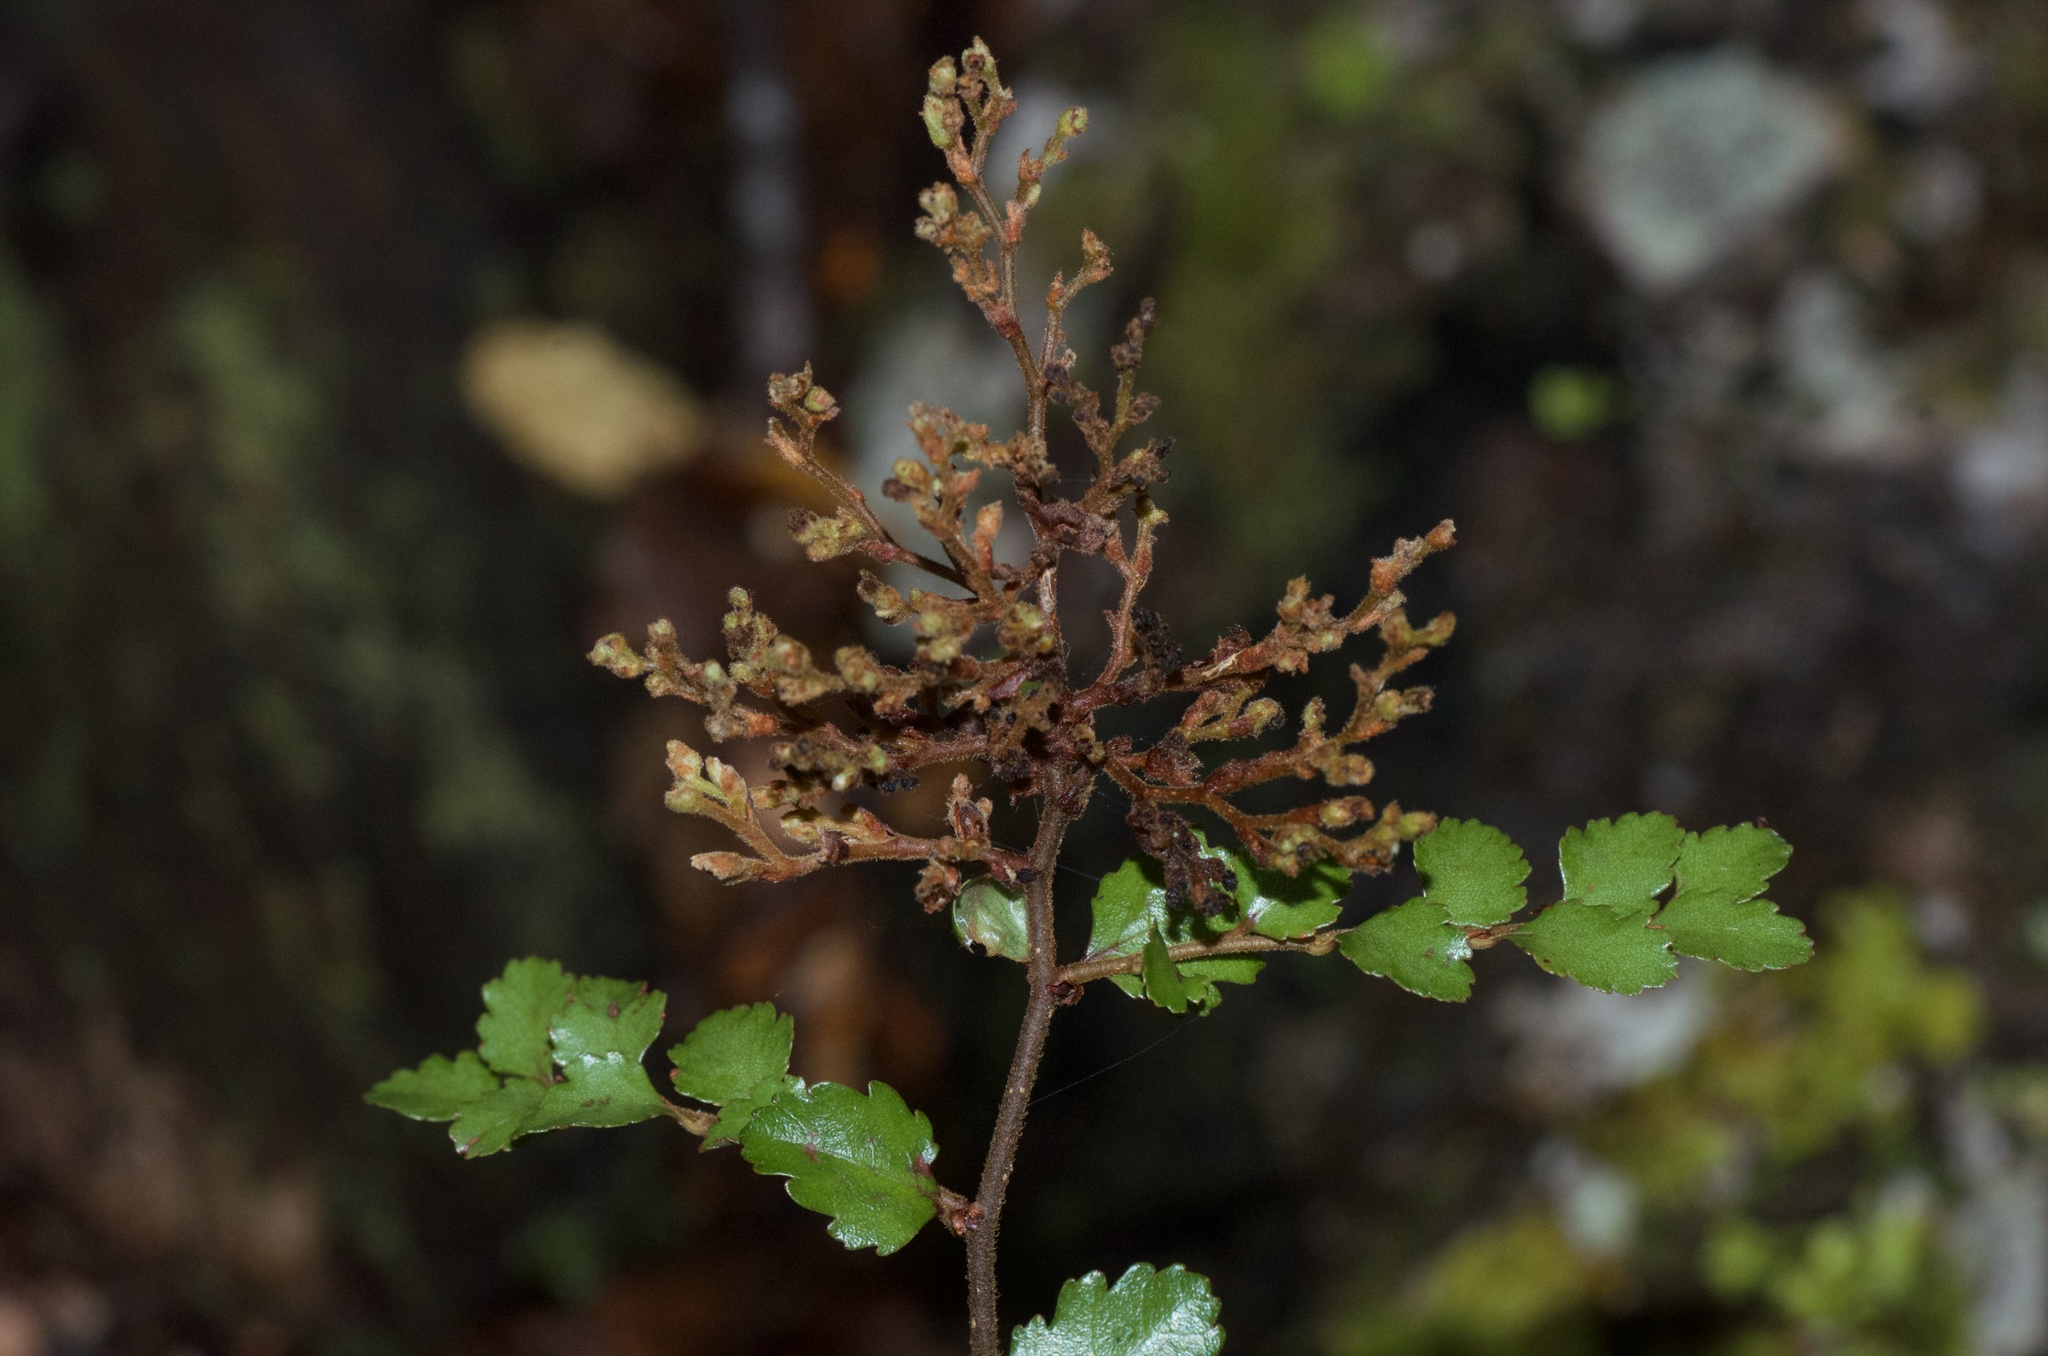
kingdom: Plantae
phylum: Tracheophyta
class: Magnoliopsida
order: Fagales
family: Nothofagaceae
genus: Nothofagus
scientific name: Nothofagus menziesii
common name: Silver beech
